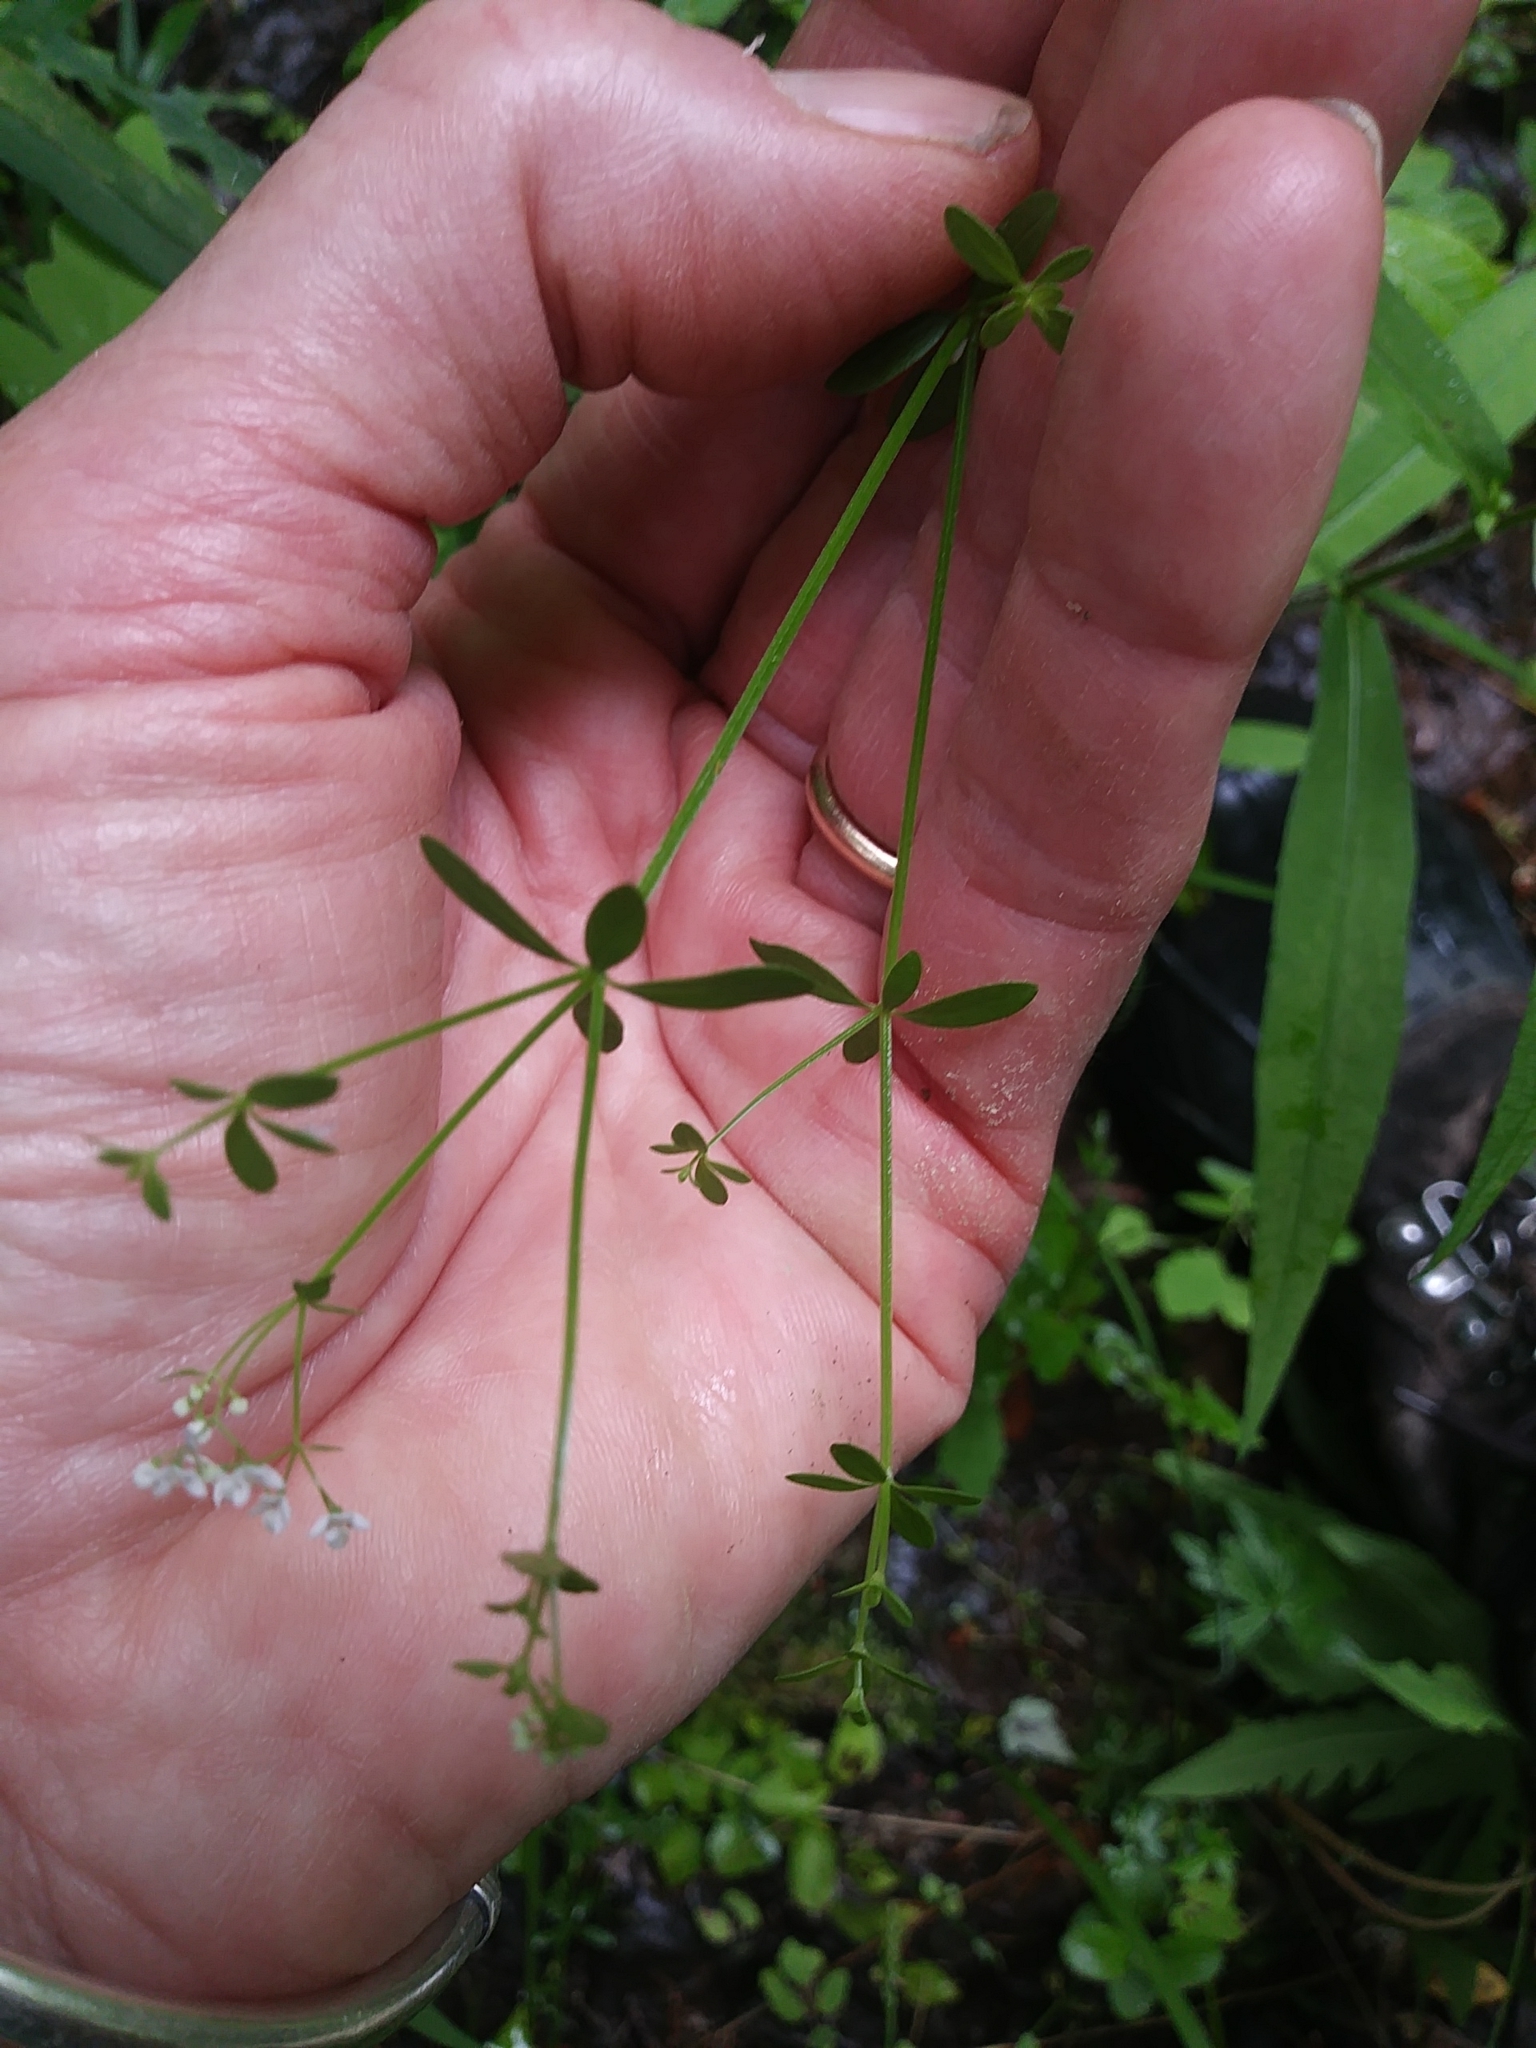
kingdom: Plantae
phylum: Tracheophyta
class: Magnoliopsida
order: Gentianales
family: Rubiaceae
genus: Galium
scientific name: Galium palustre
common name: Common marsh-bedstraw
